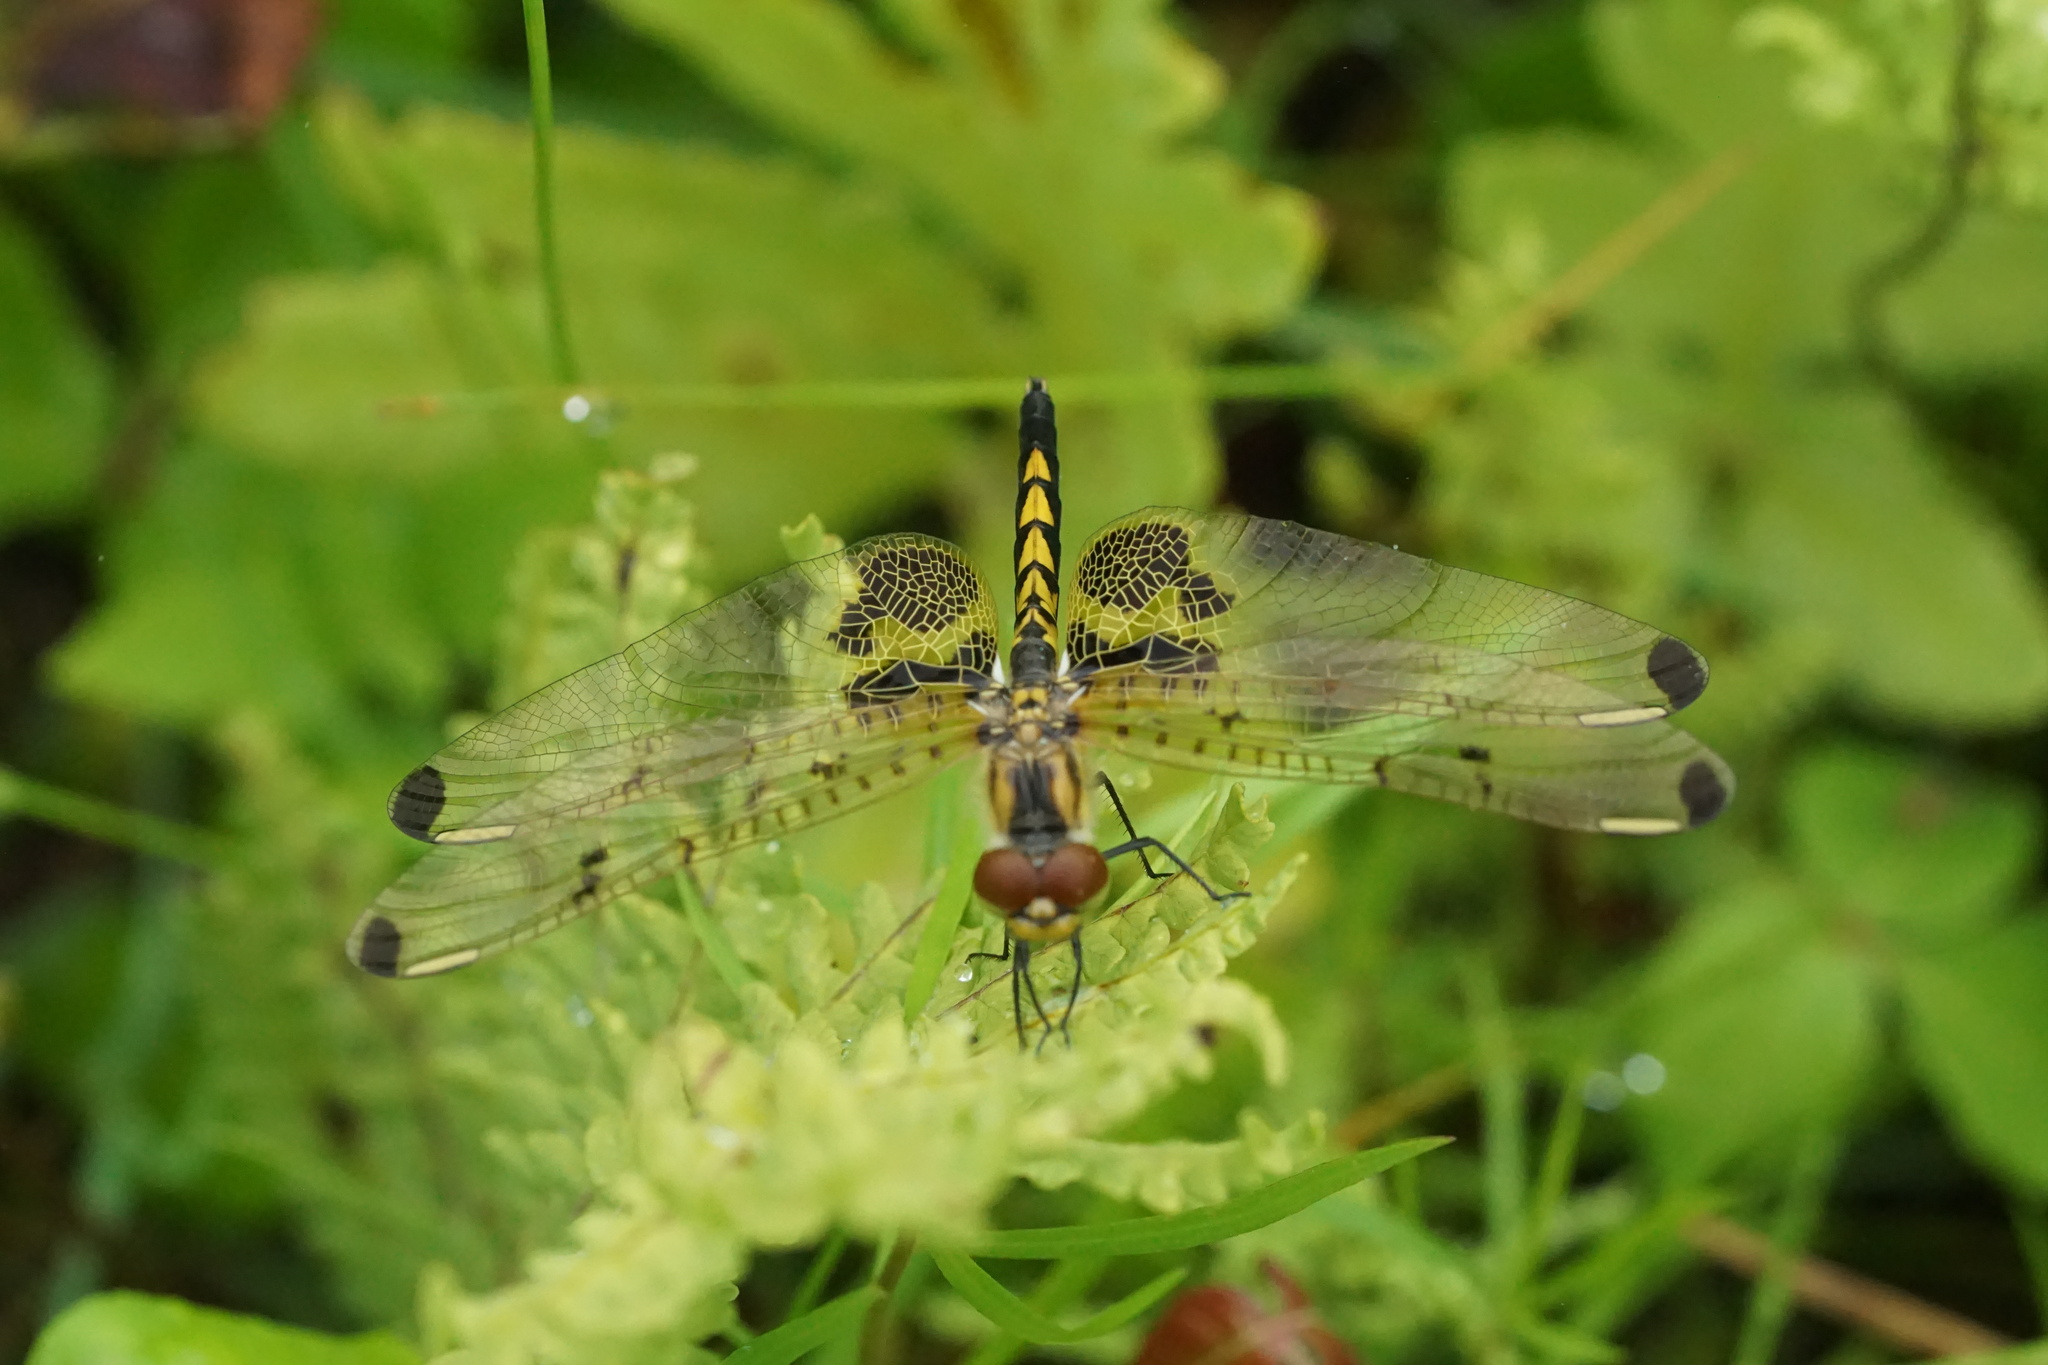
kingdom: Animalia
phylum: Arthropoda
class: Insecta
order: Odonata
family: Libellulidae
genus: Celithemis
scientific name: Celithemis elisa
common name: Calico pennant
